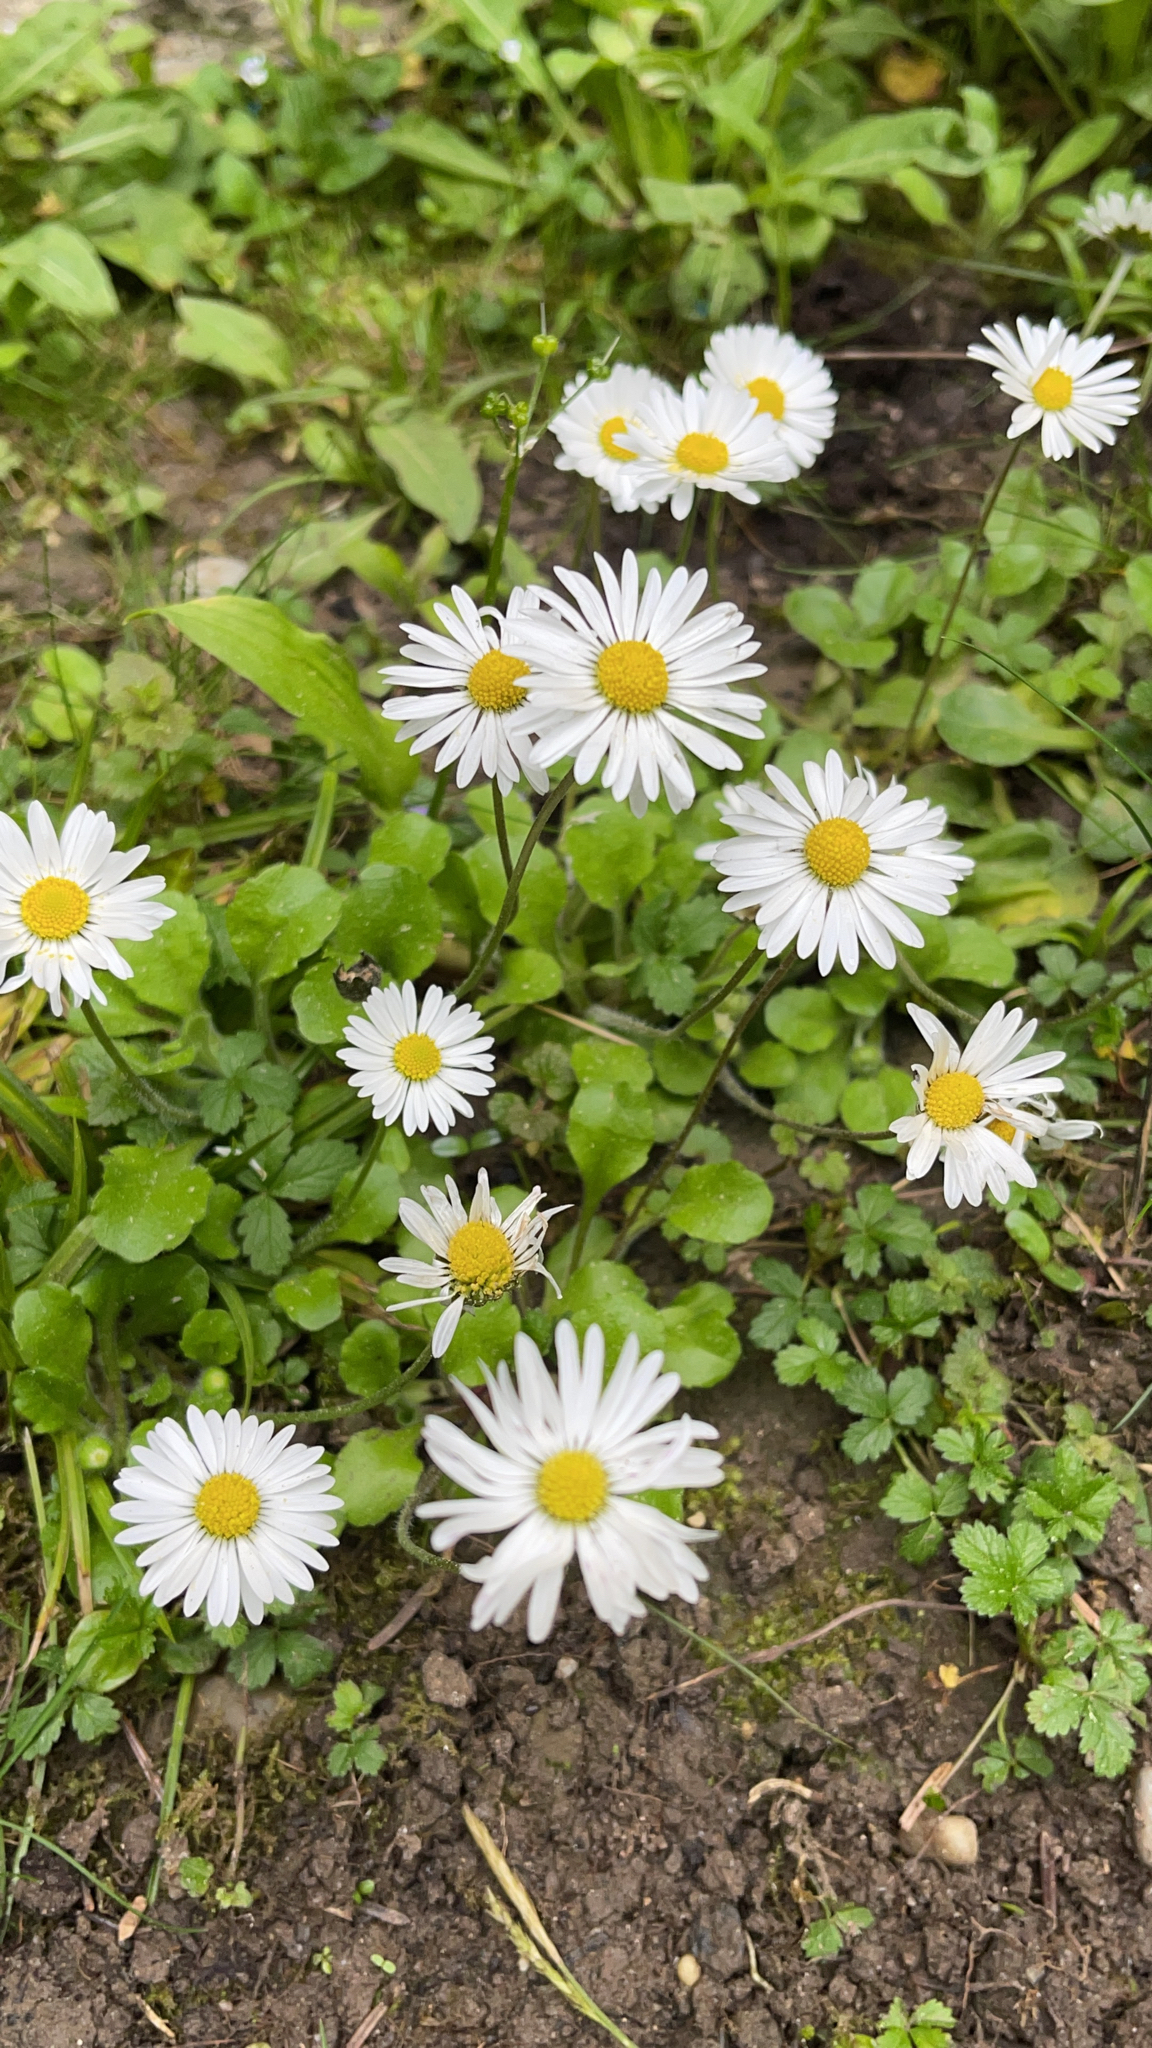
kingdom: Plantae
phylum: Tracheophyta
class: Magnoliopsida
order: Asterales
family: Asteraceae
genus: Bellis
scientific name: Bellis perennis
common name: Lawndaisy
